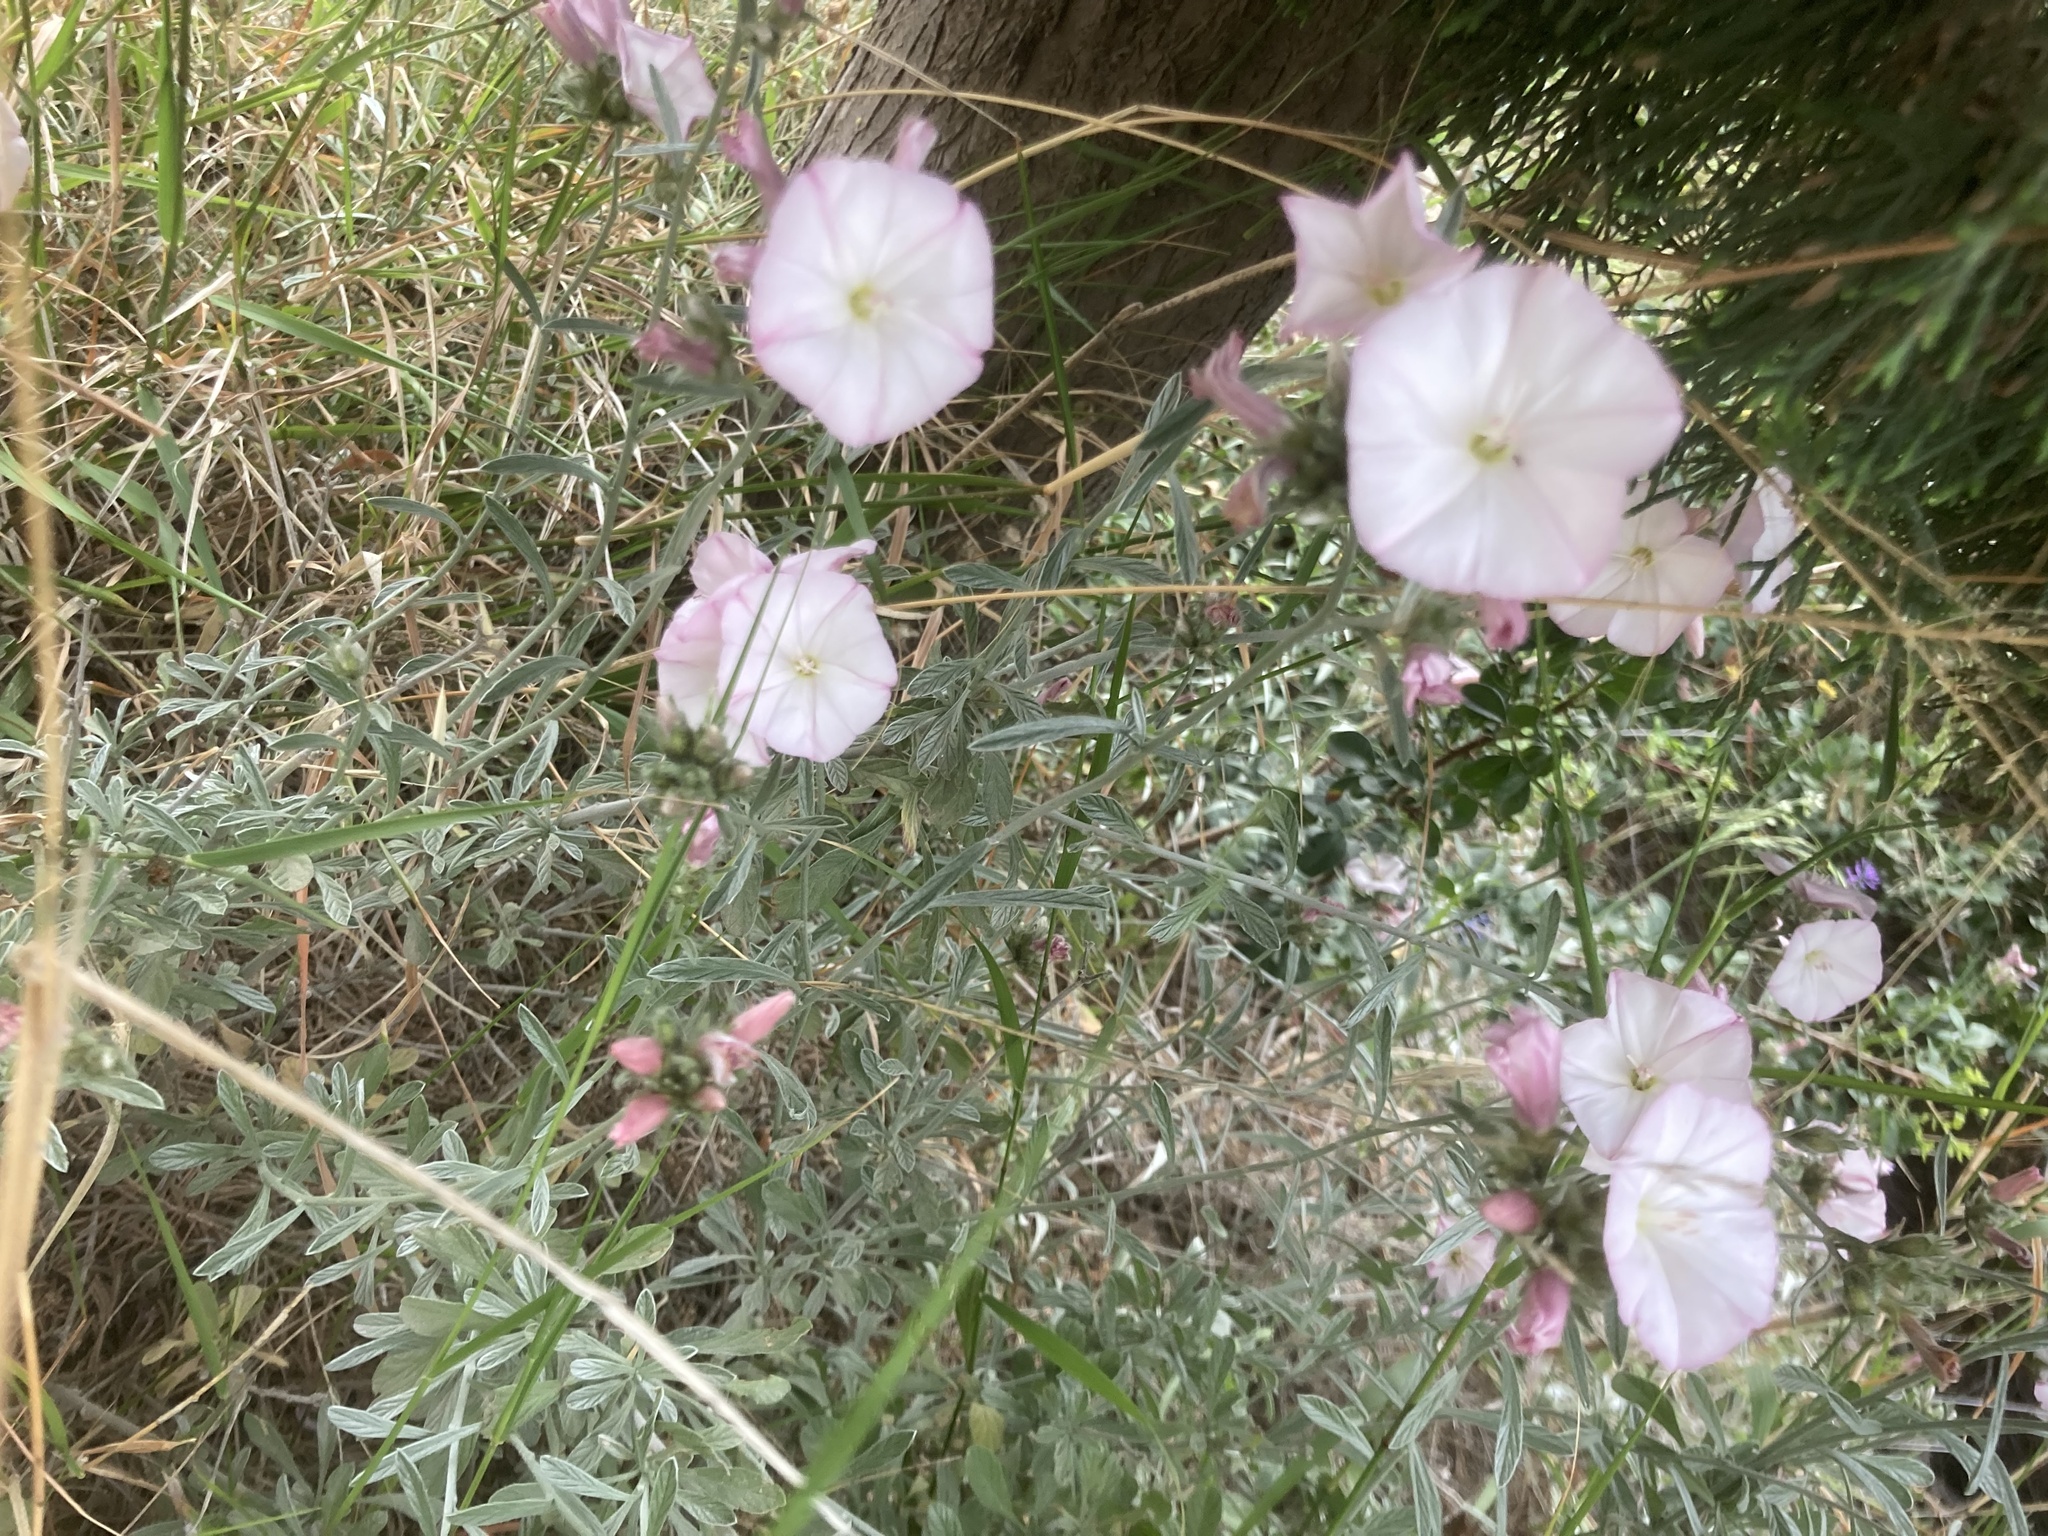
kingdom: Plantae
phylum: Tracheophyta
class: Magnoliopsida
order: Solanales
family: Convolvulaceae
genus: Convolvulus
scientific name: Convolvulus oleifolius
